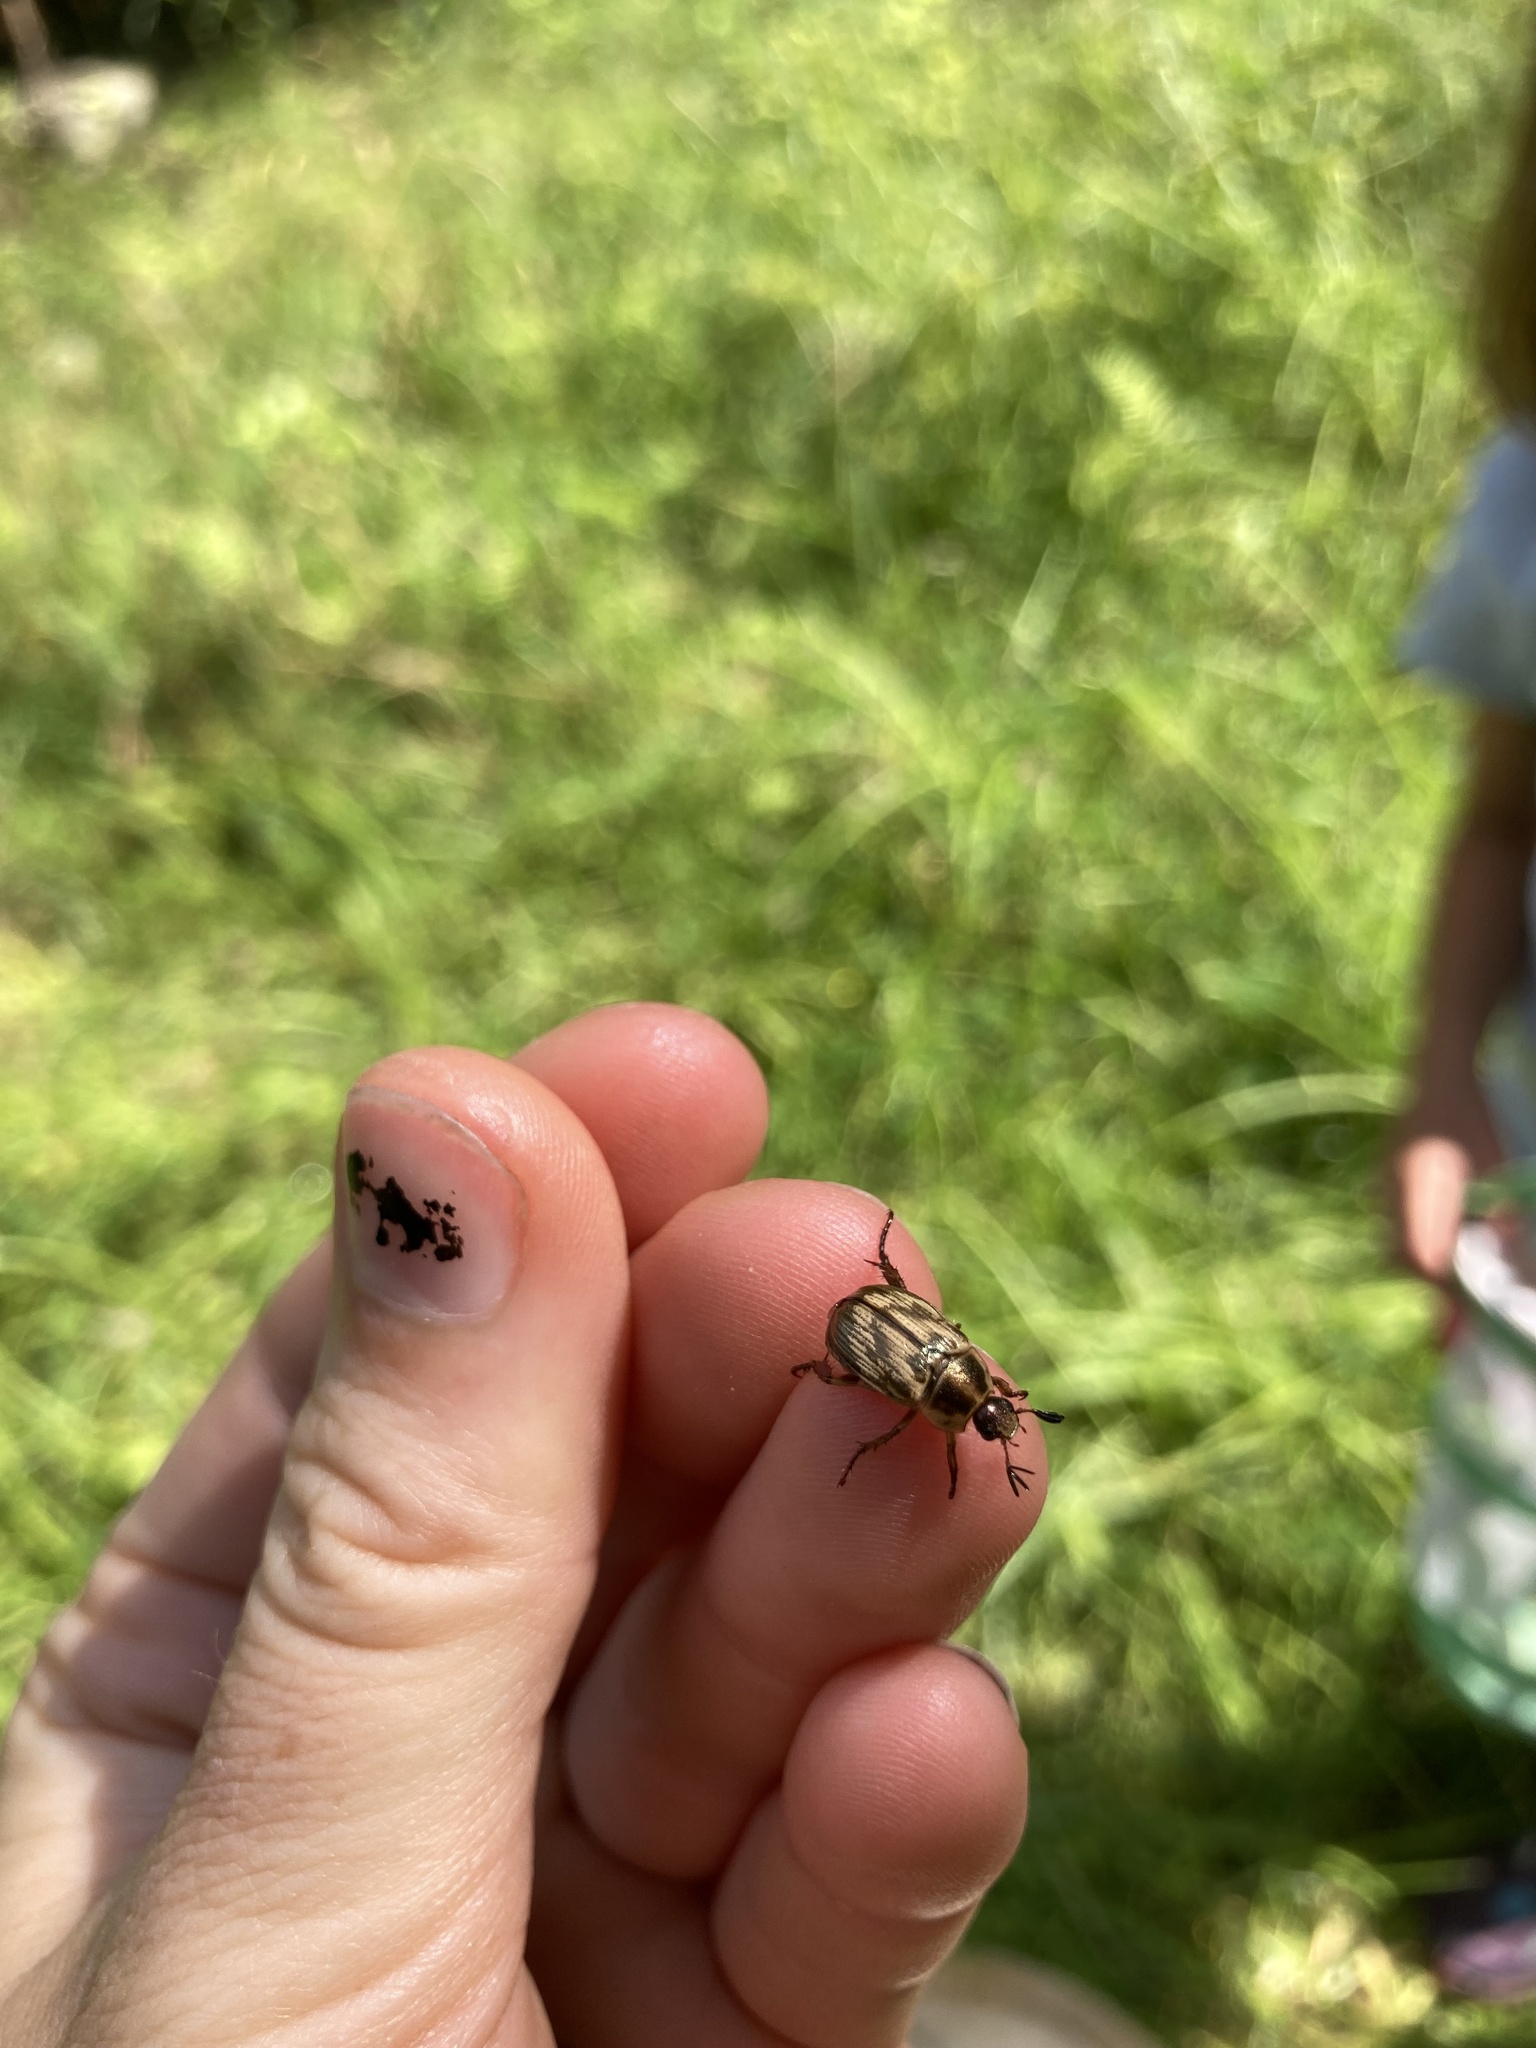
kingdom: Animalia
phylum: Arthropoda
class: Insecta
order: Coleoptera
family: Scarabaeidae
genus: Exomala
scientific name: Exomala orientalis
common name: Oriental beetle
